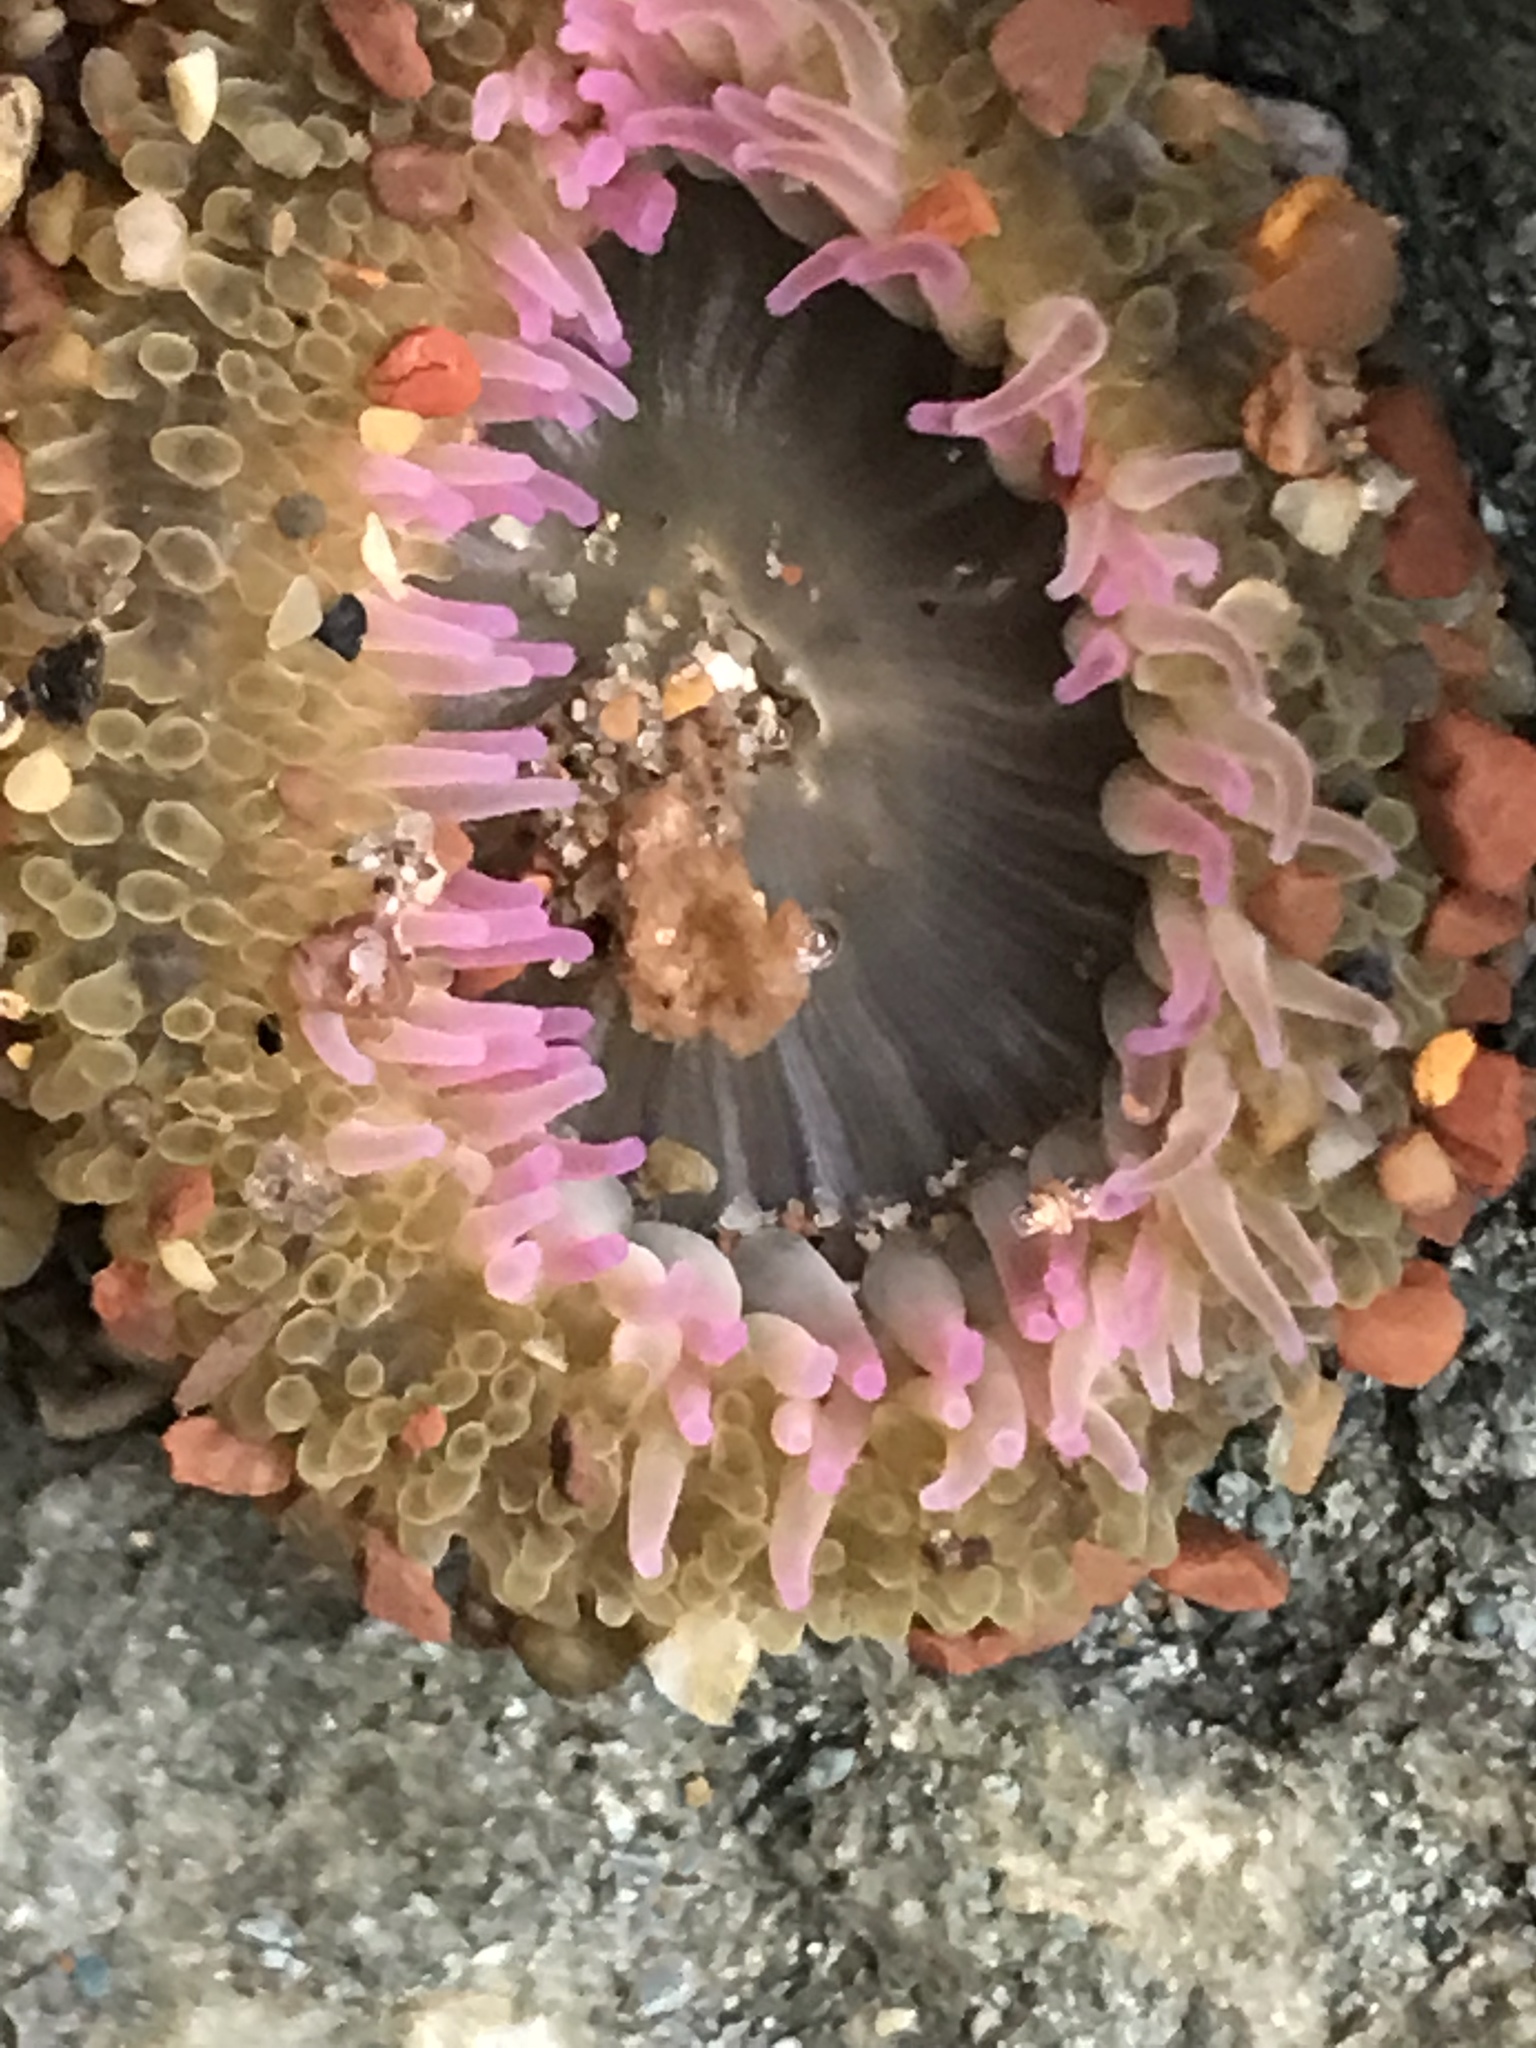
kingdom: Animalia
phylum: Cnidaria
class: Anthozoa
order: Actiniaria
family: Actiniidae
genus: Anthopleura
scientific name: Anthopleura elegantissima
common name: Clonal anemone
